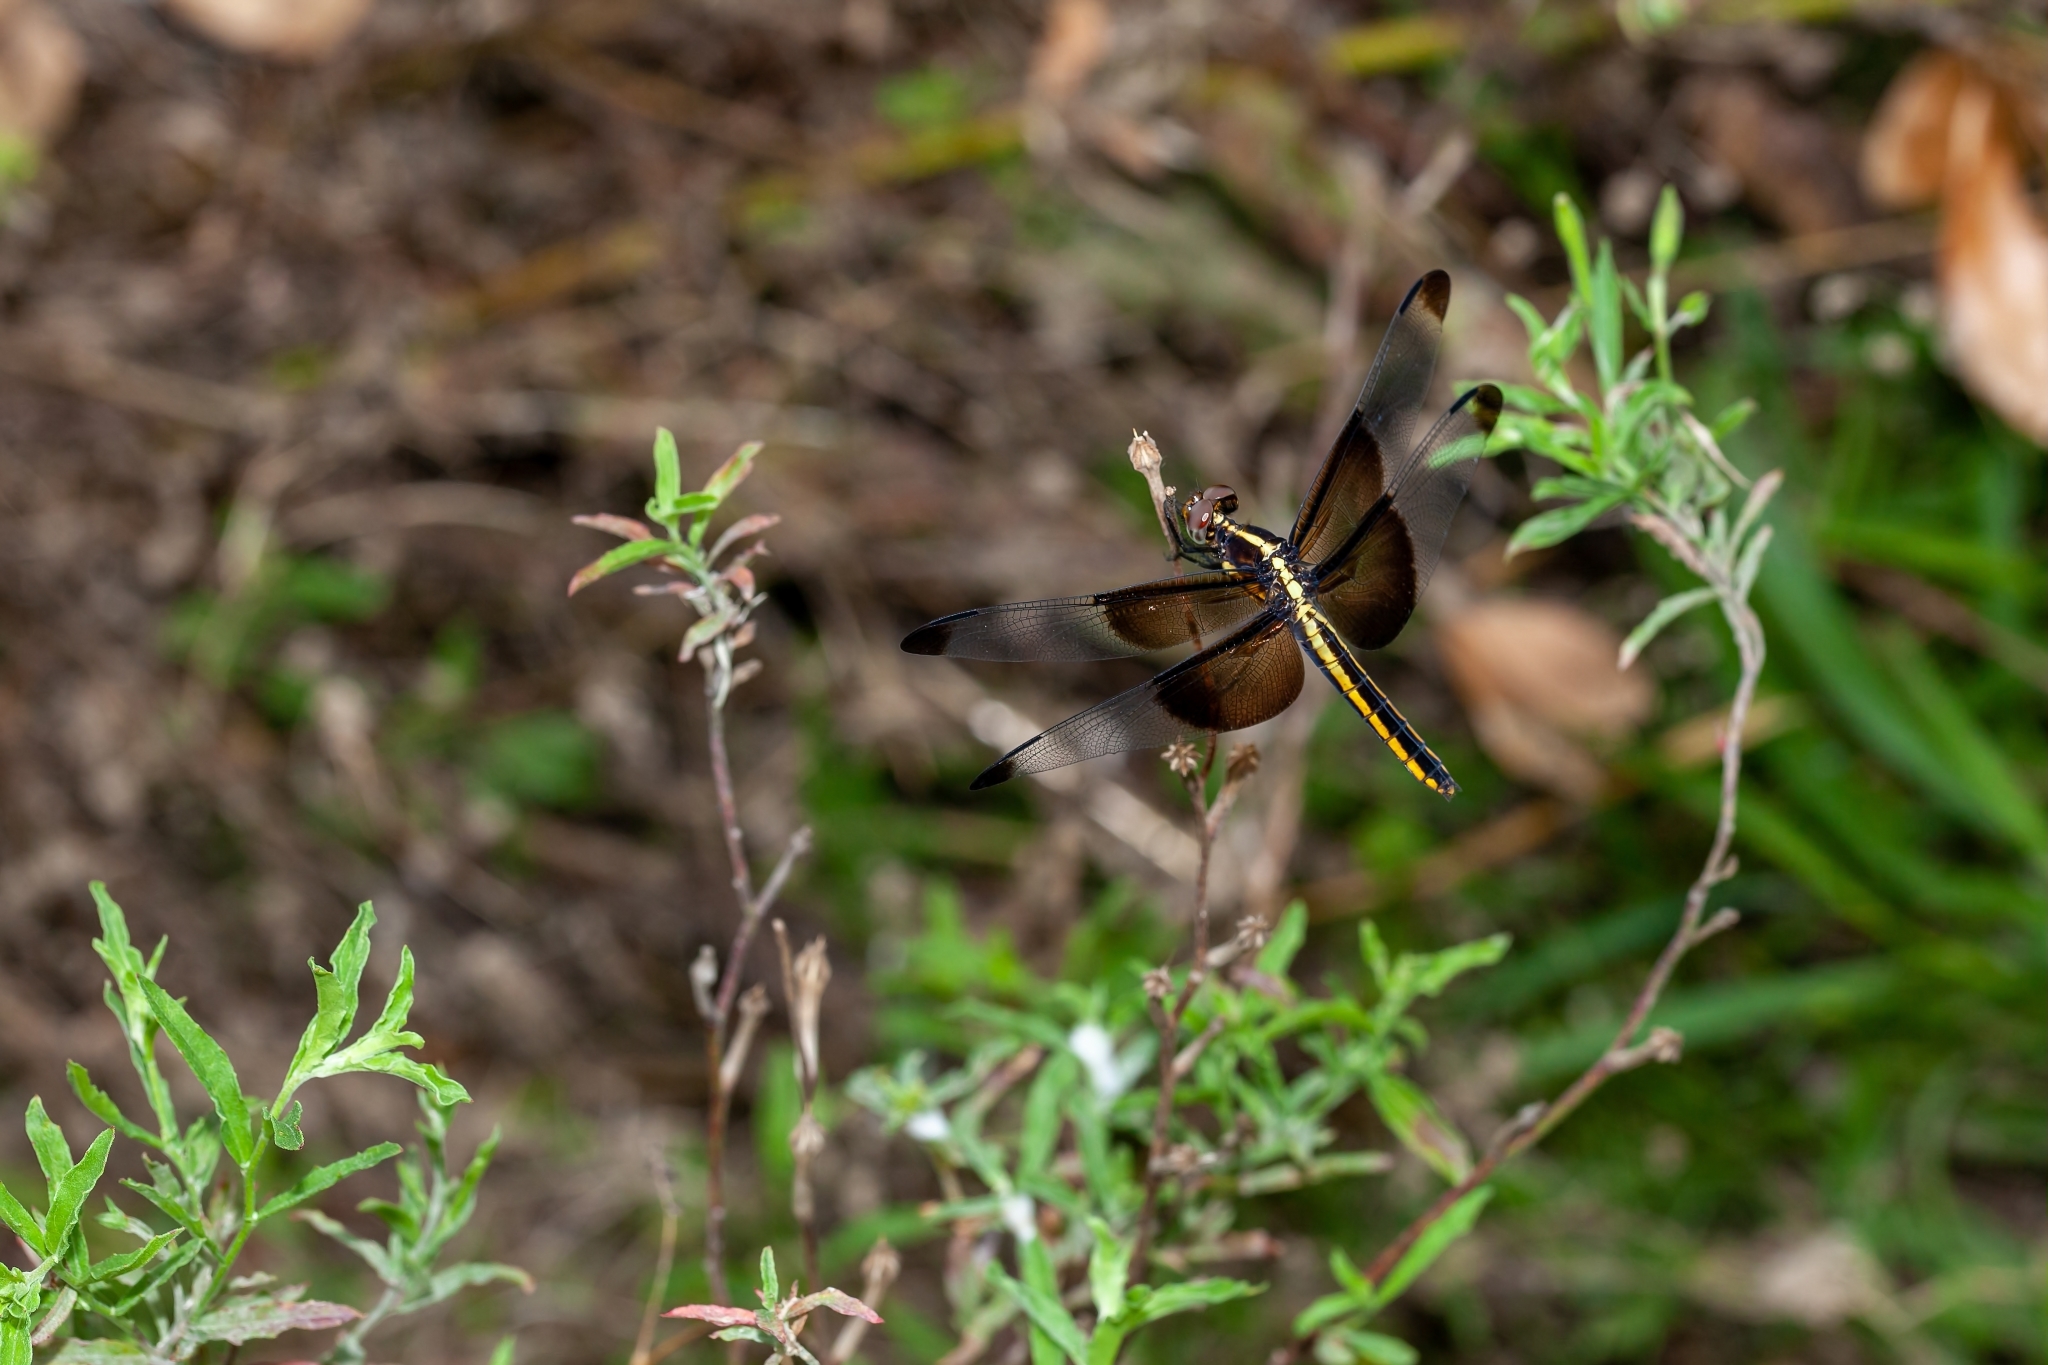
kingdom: Animalia
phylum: Arthropoda
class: Insecta
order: Odonata
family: Libellulidae
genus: Libellula
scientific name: Libellula luctuosa
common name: Widow skimmer
